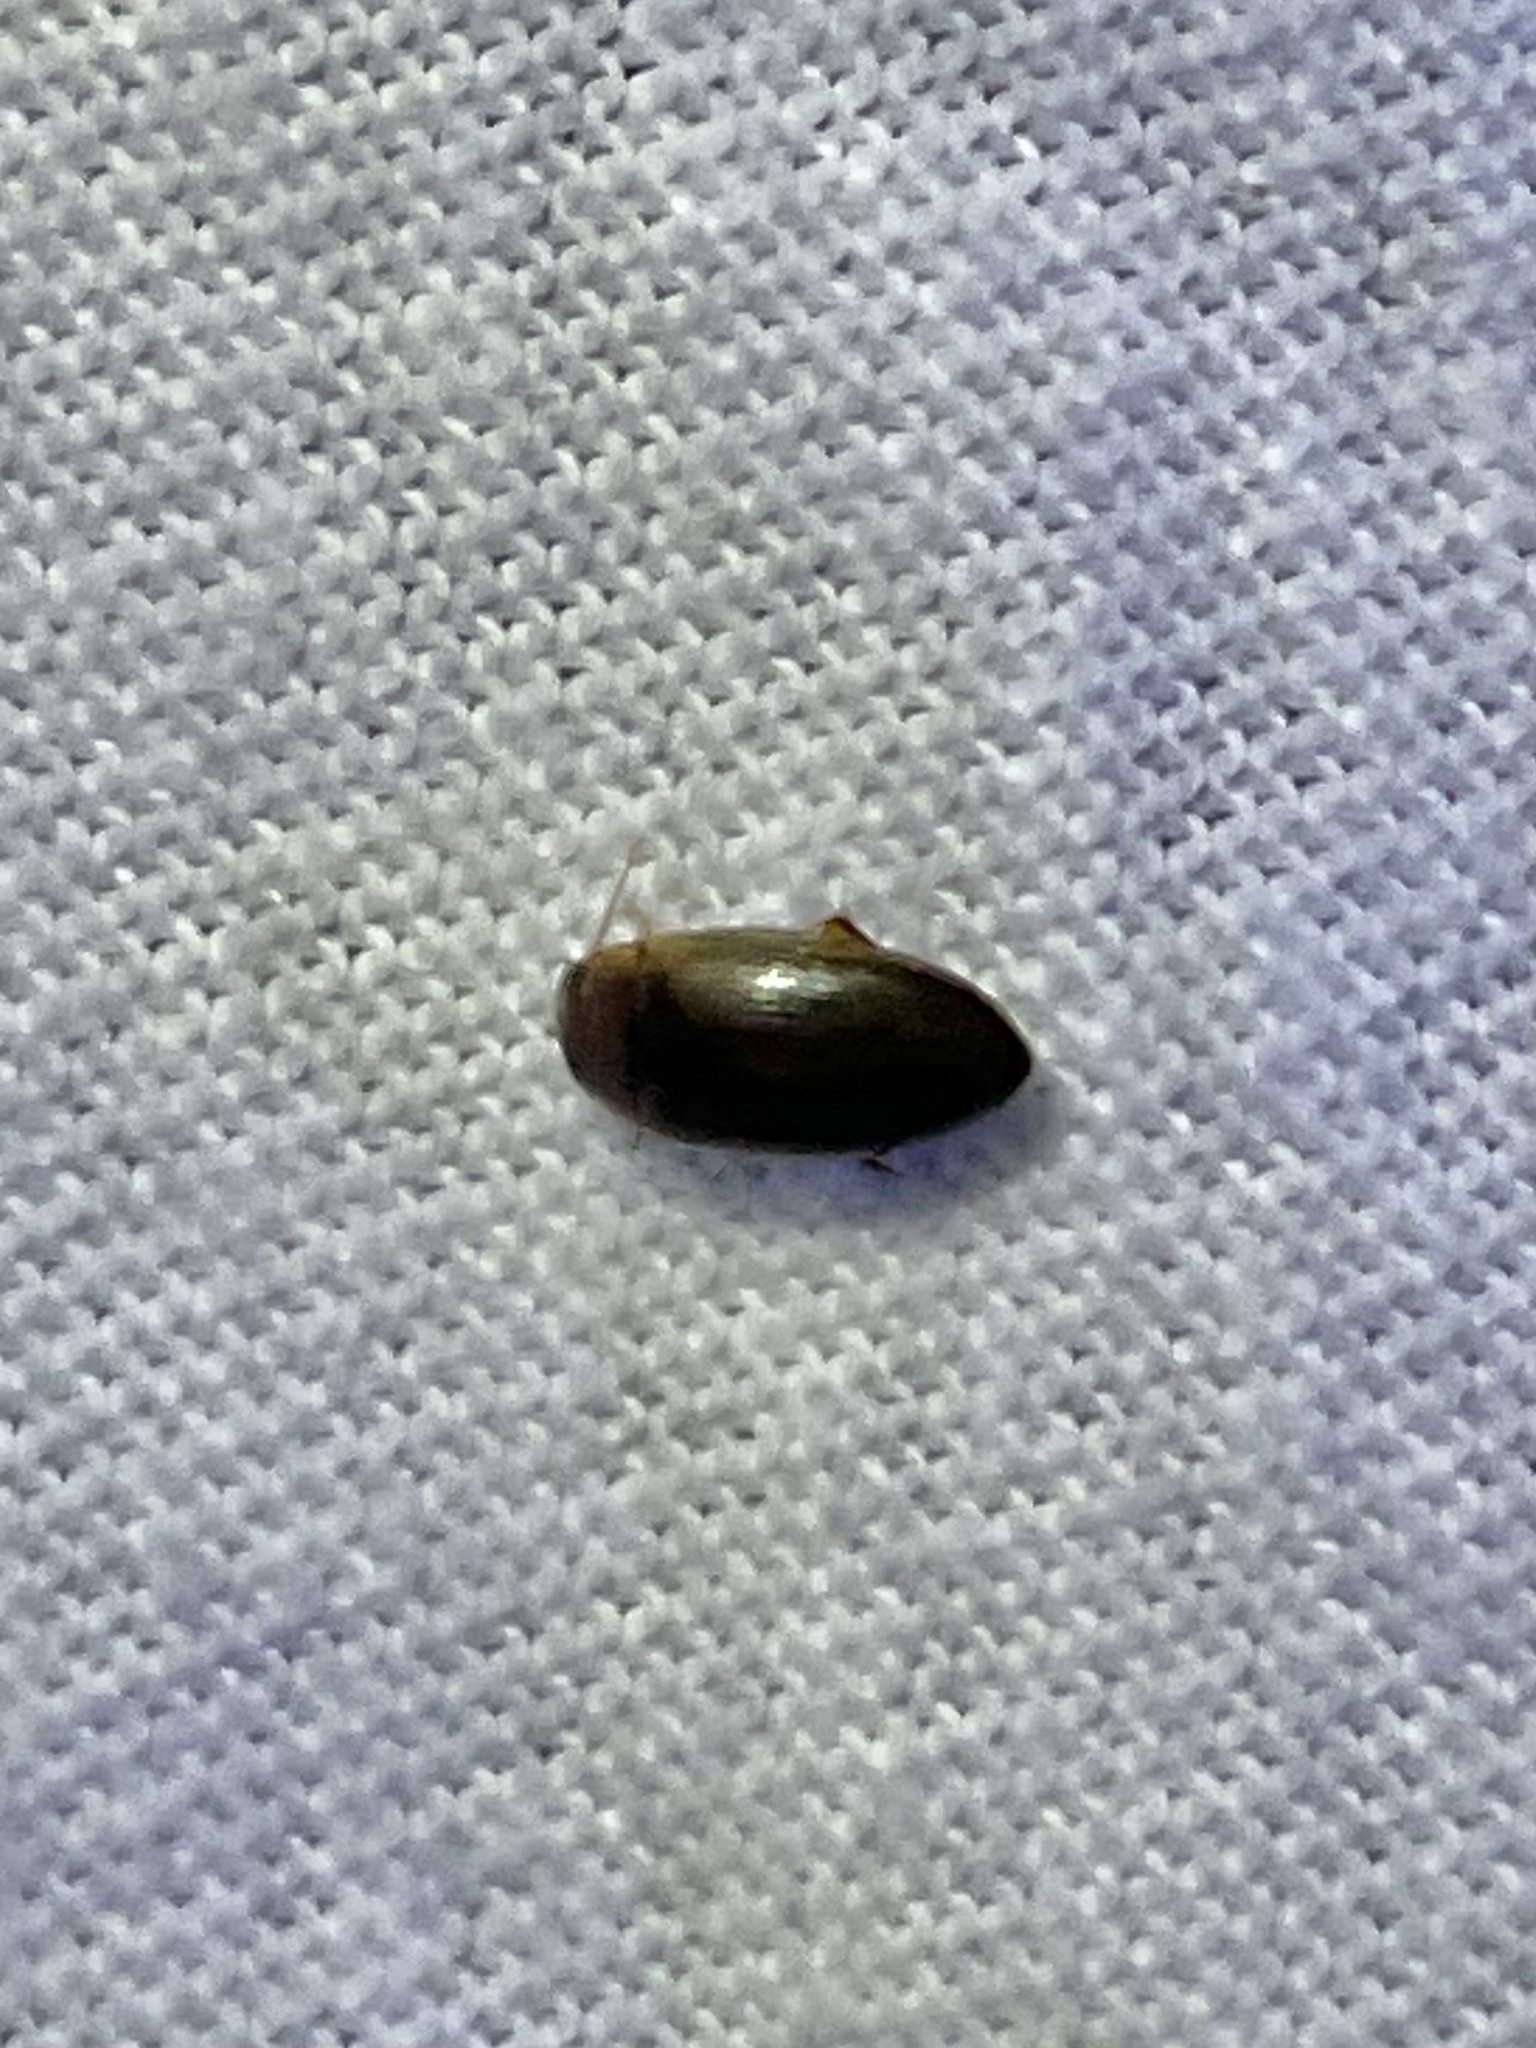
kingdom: Animalia
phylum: Arthropoda
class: Insecta
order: Coleoptera
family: Dytiscidae
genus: Copelatus
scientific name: Copelatus
